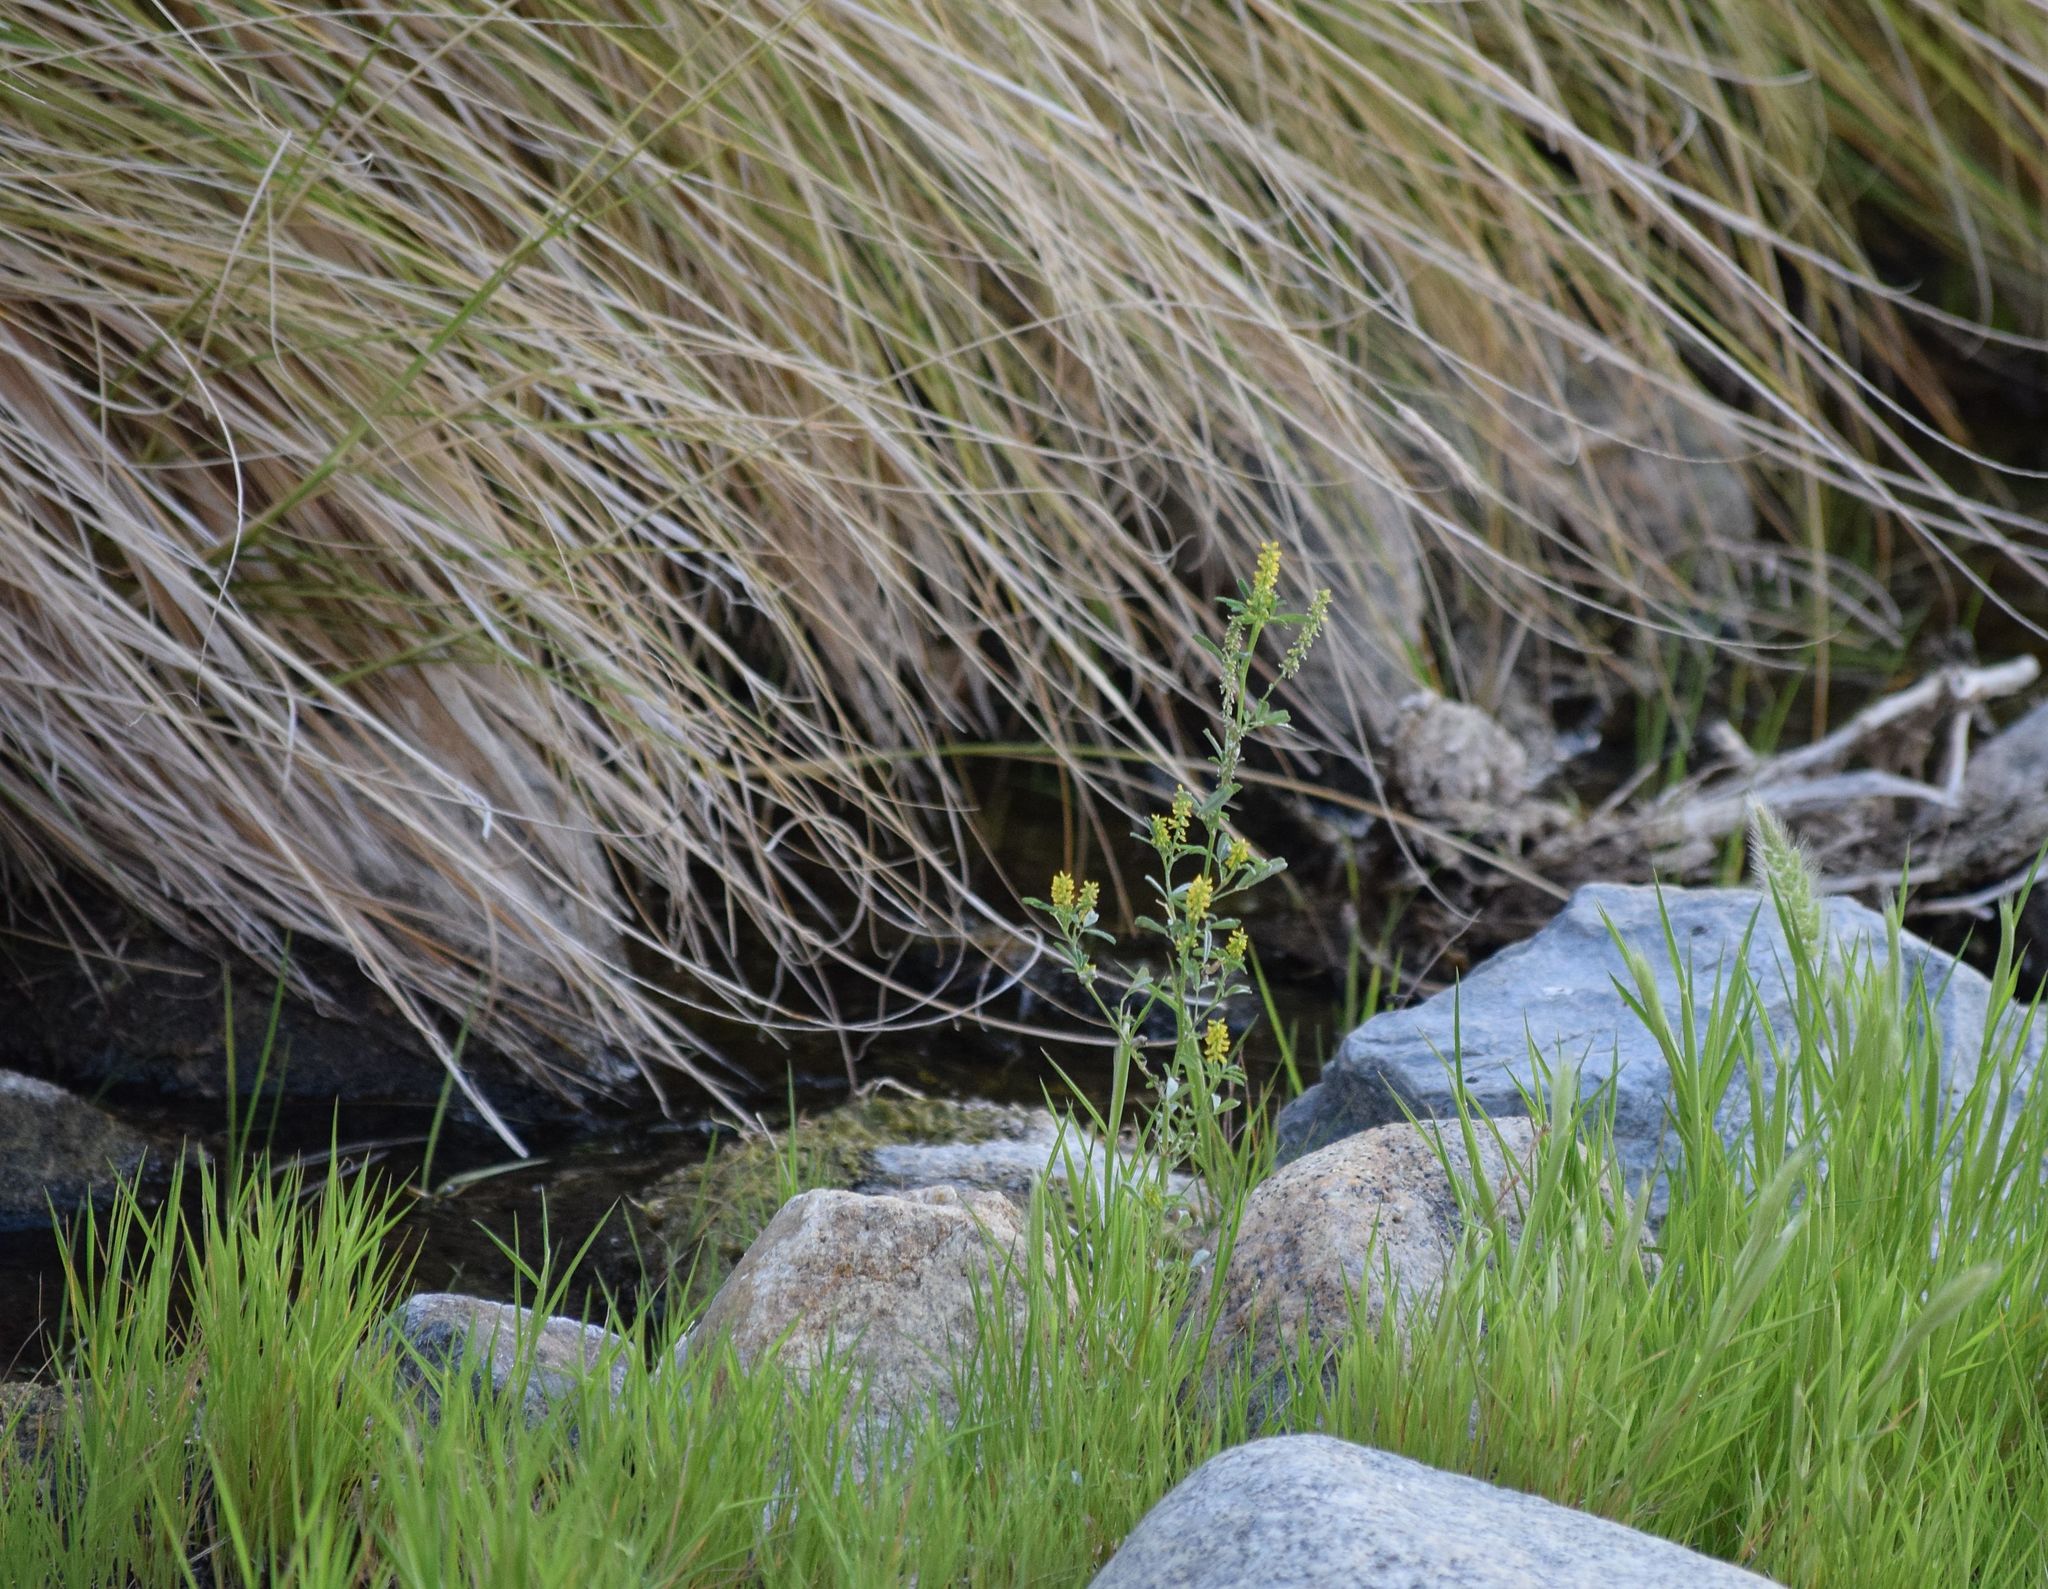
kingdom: Plantae
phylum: Tracheophyta
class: Magnoliopsida
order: Fabales
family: Fabaceae
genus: Melilotus
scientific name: Melilotus indicus
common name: Small melilot
